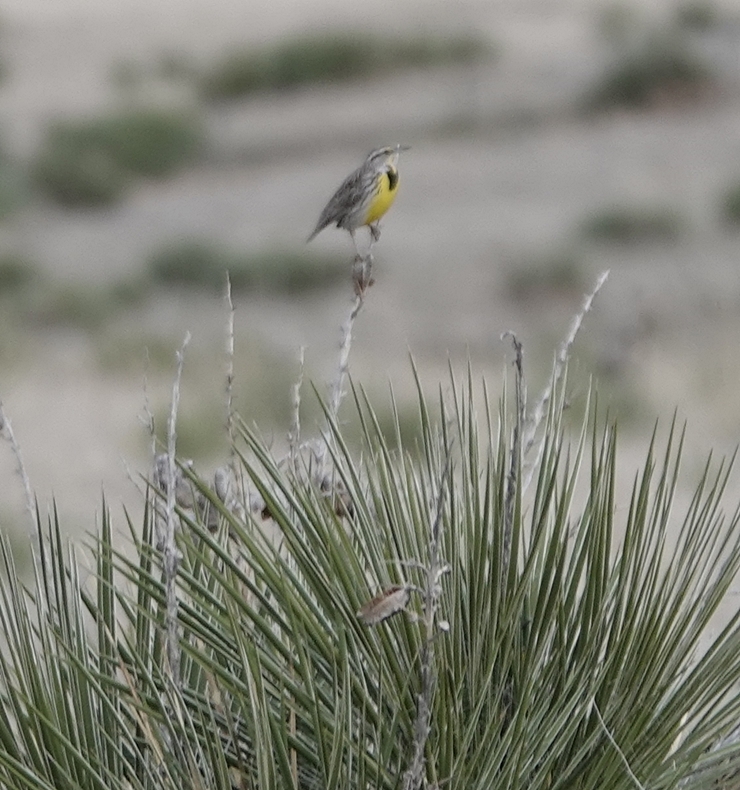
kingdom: Animalia
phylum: Chordata
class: Aves
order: Passeriformes
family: Icteridae
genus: Sturnella
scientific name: Sturnella neglecta
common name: Western meadowlark
